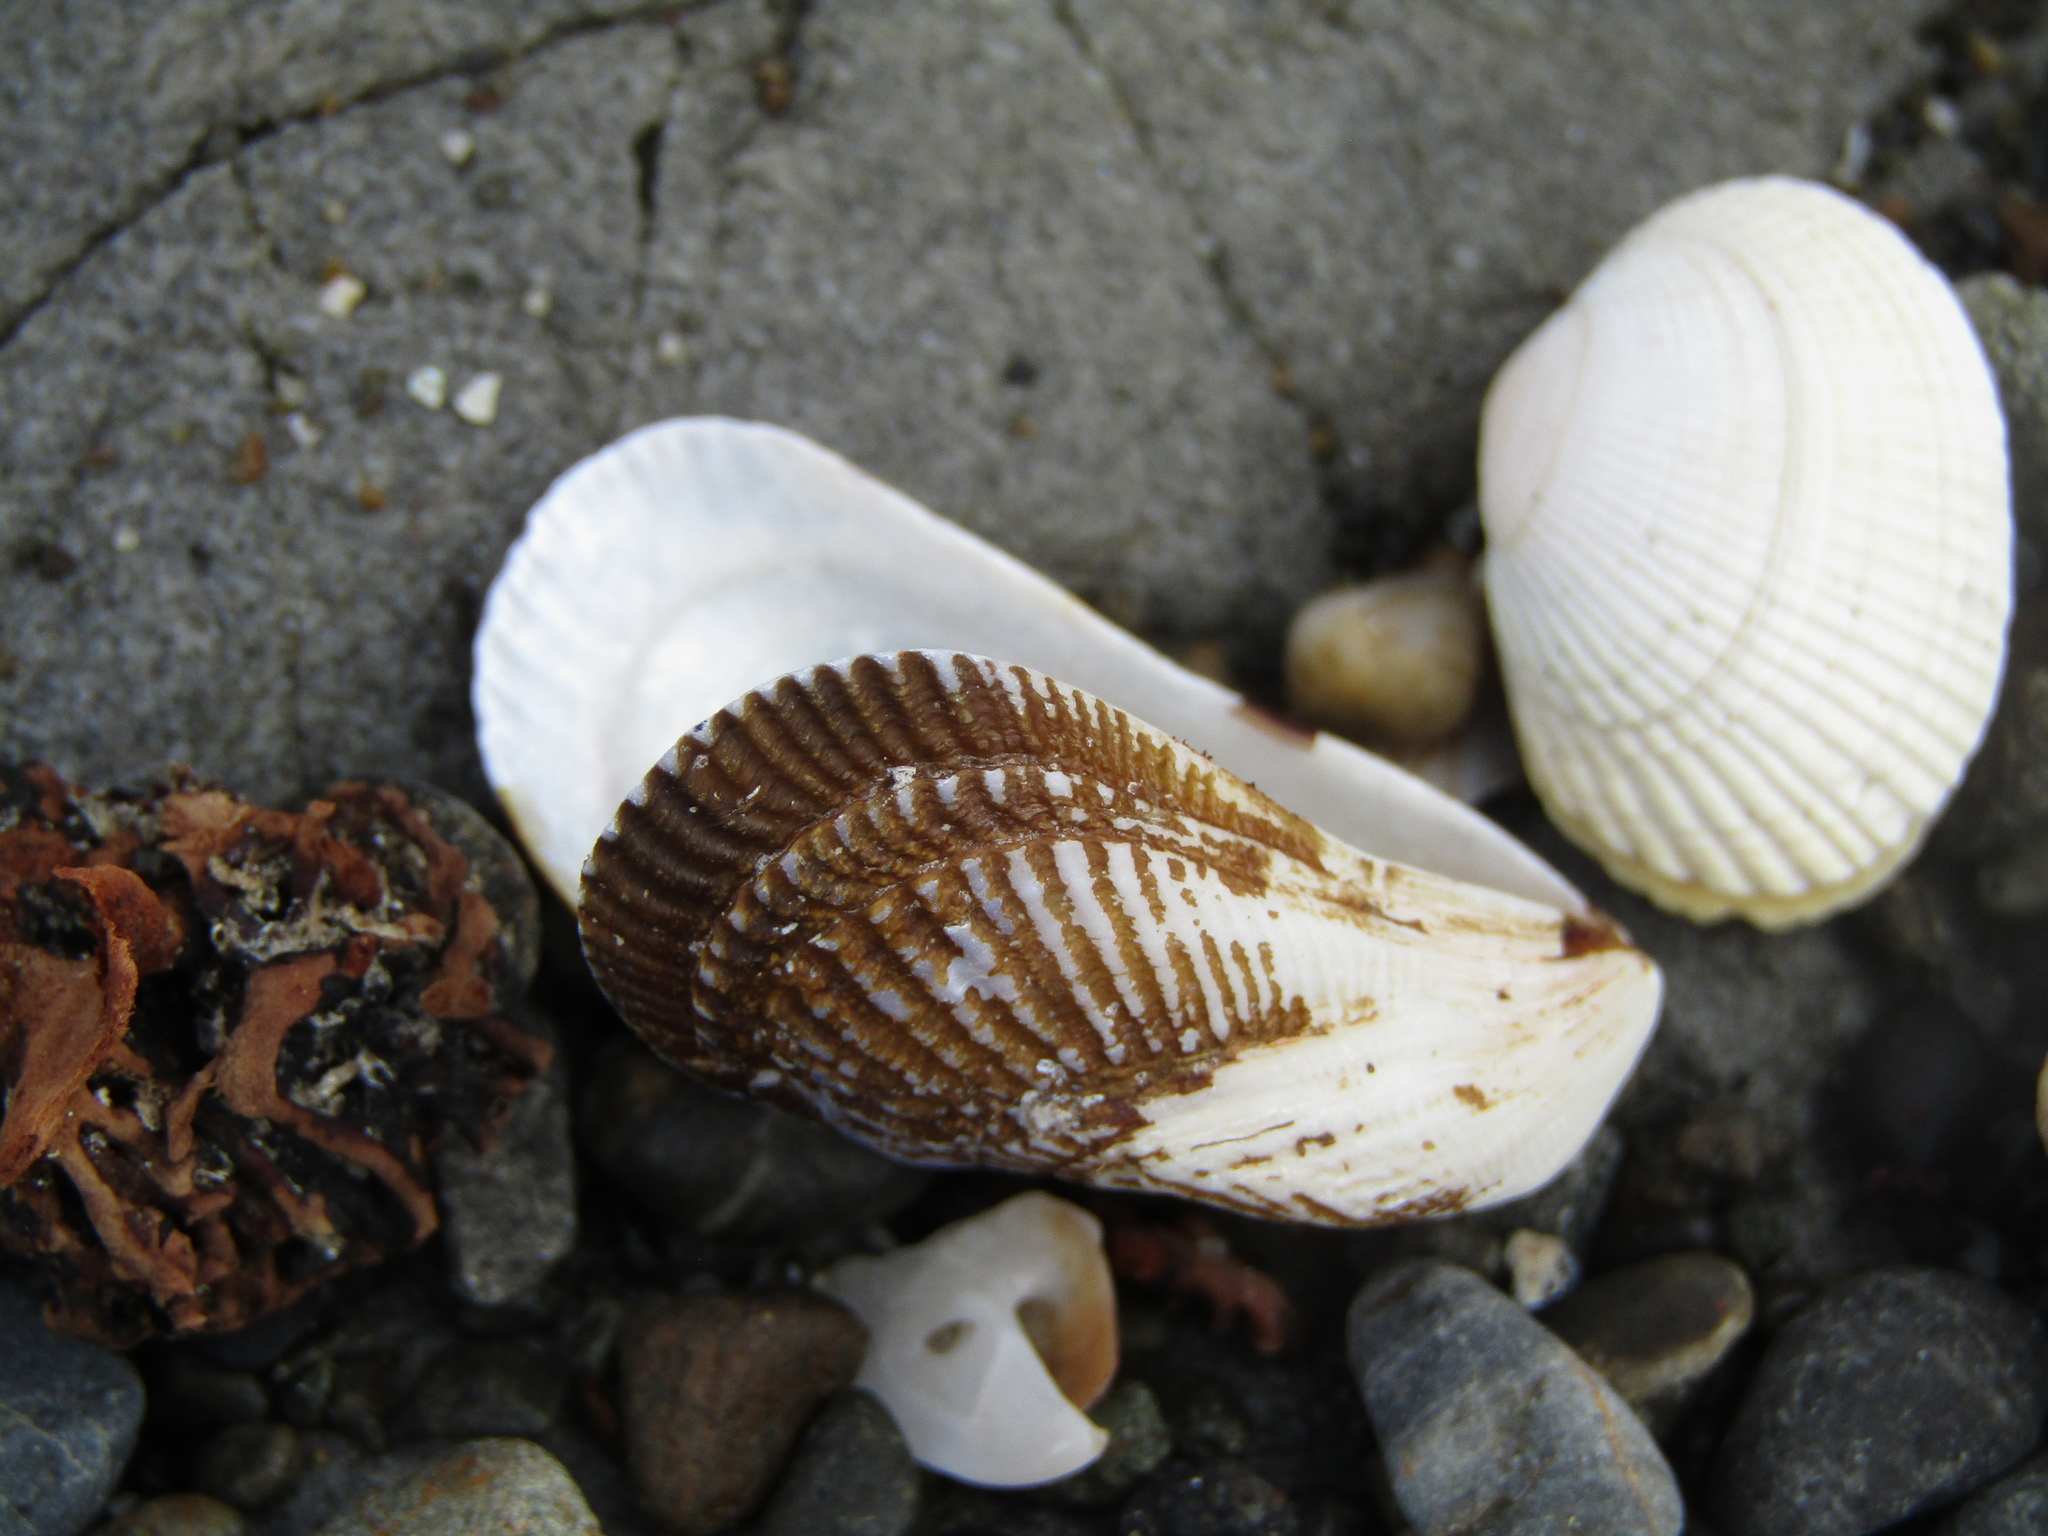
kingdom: Animalia
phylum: Mollusca
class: Bivalvia
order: Mytilida
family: Mytilidae
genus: Aulacomya
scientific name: Aulacomya maoriana
